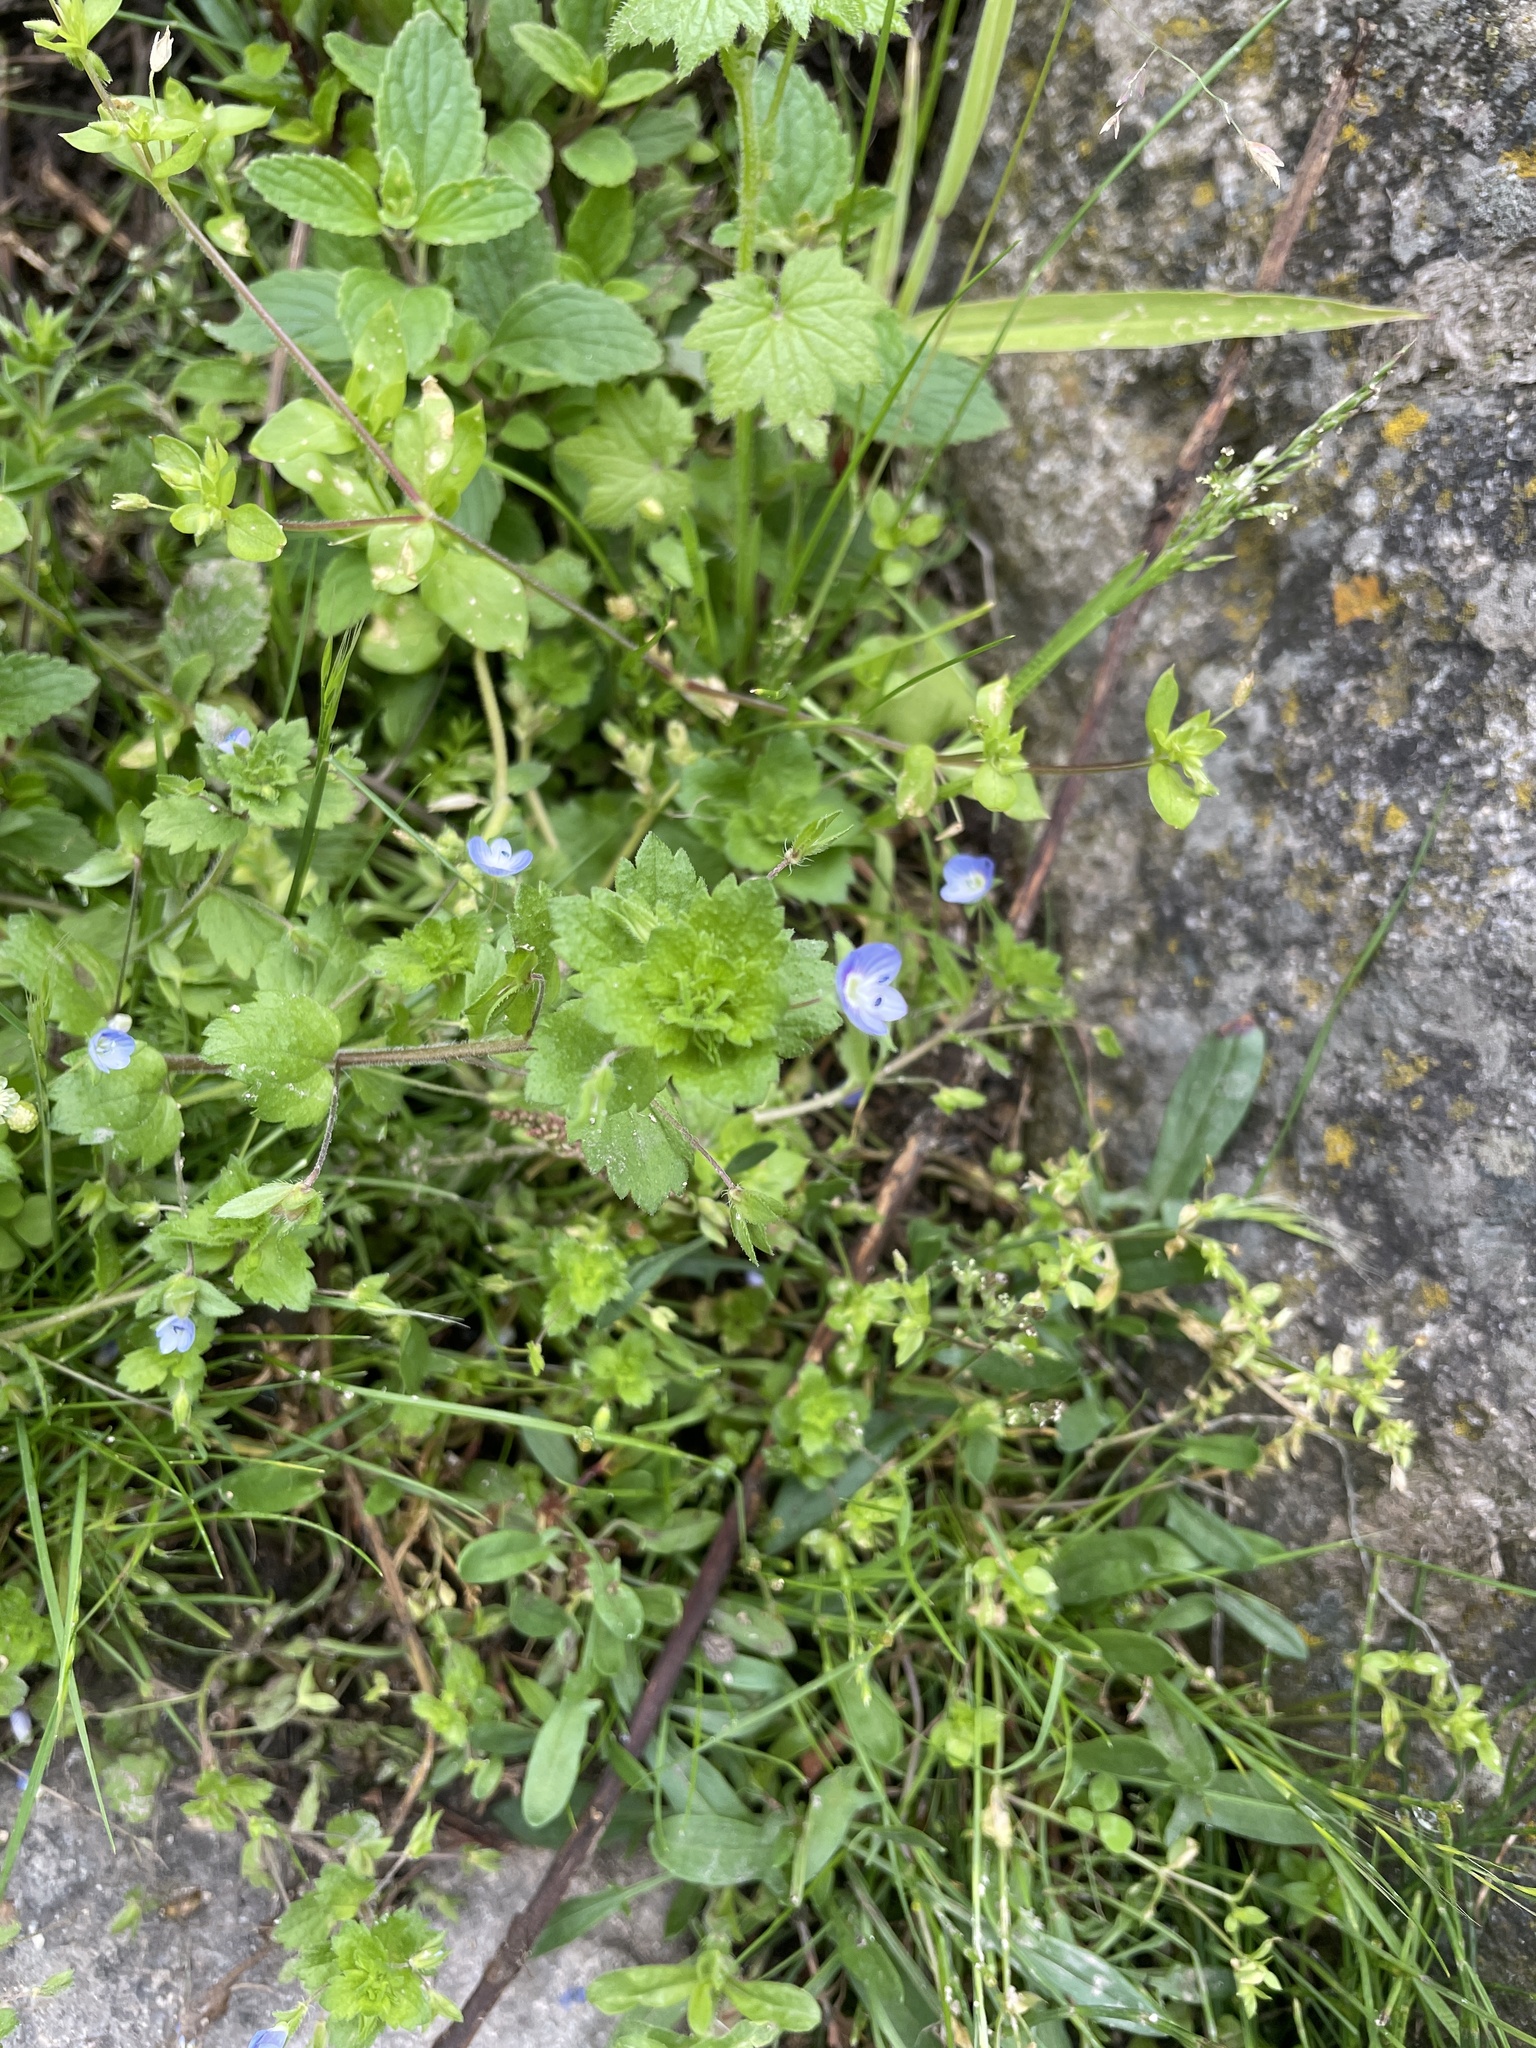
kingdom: Plantae
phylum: Tracheophyta
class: Magnoliopsida
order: Lamiales
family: Plantaginaceae
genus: Veronica
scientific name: Veronica persica
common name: Common field-speedwell
